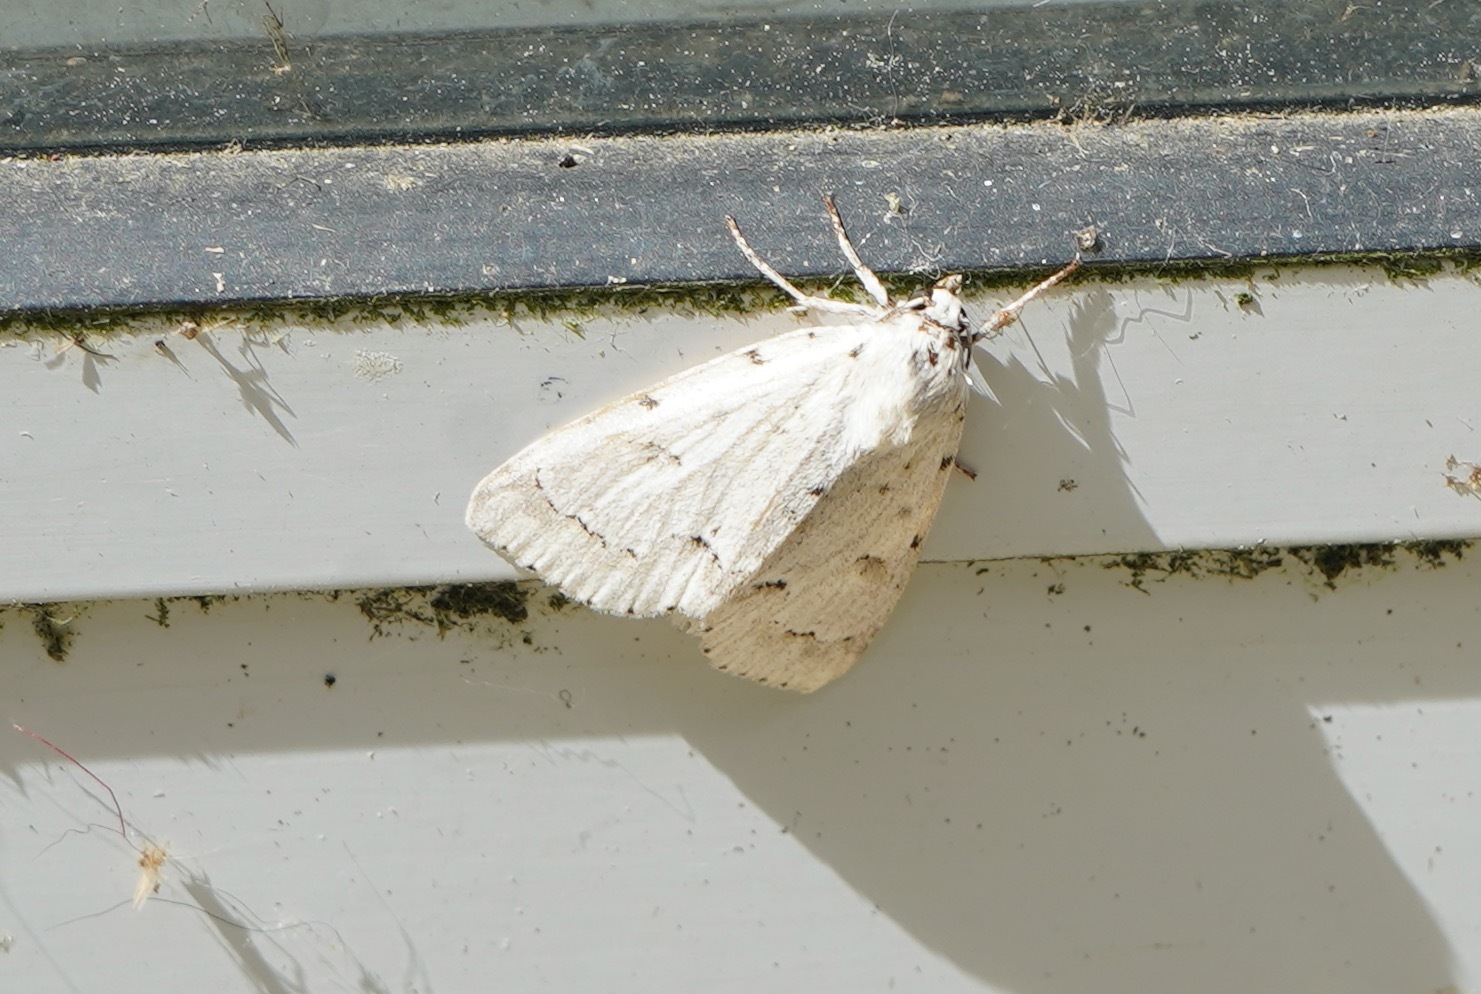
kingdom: Animalia
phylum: Arthropoda
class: Insecta
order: Lepidoptera
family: Noctuidae
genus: Acronicta
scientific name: Acronicta innotata
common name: Unmarked dagger
